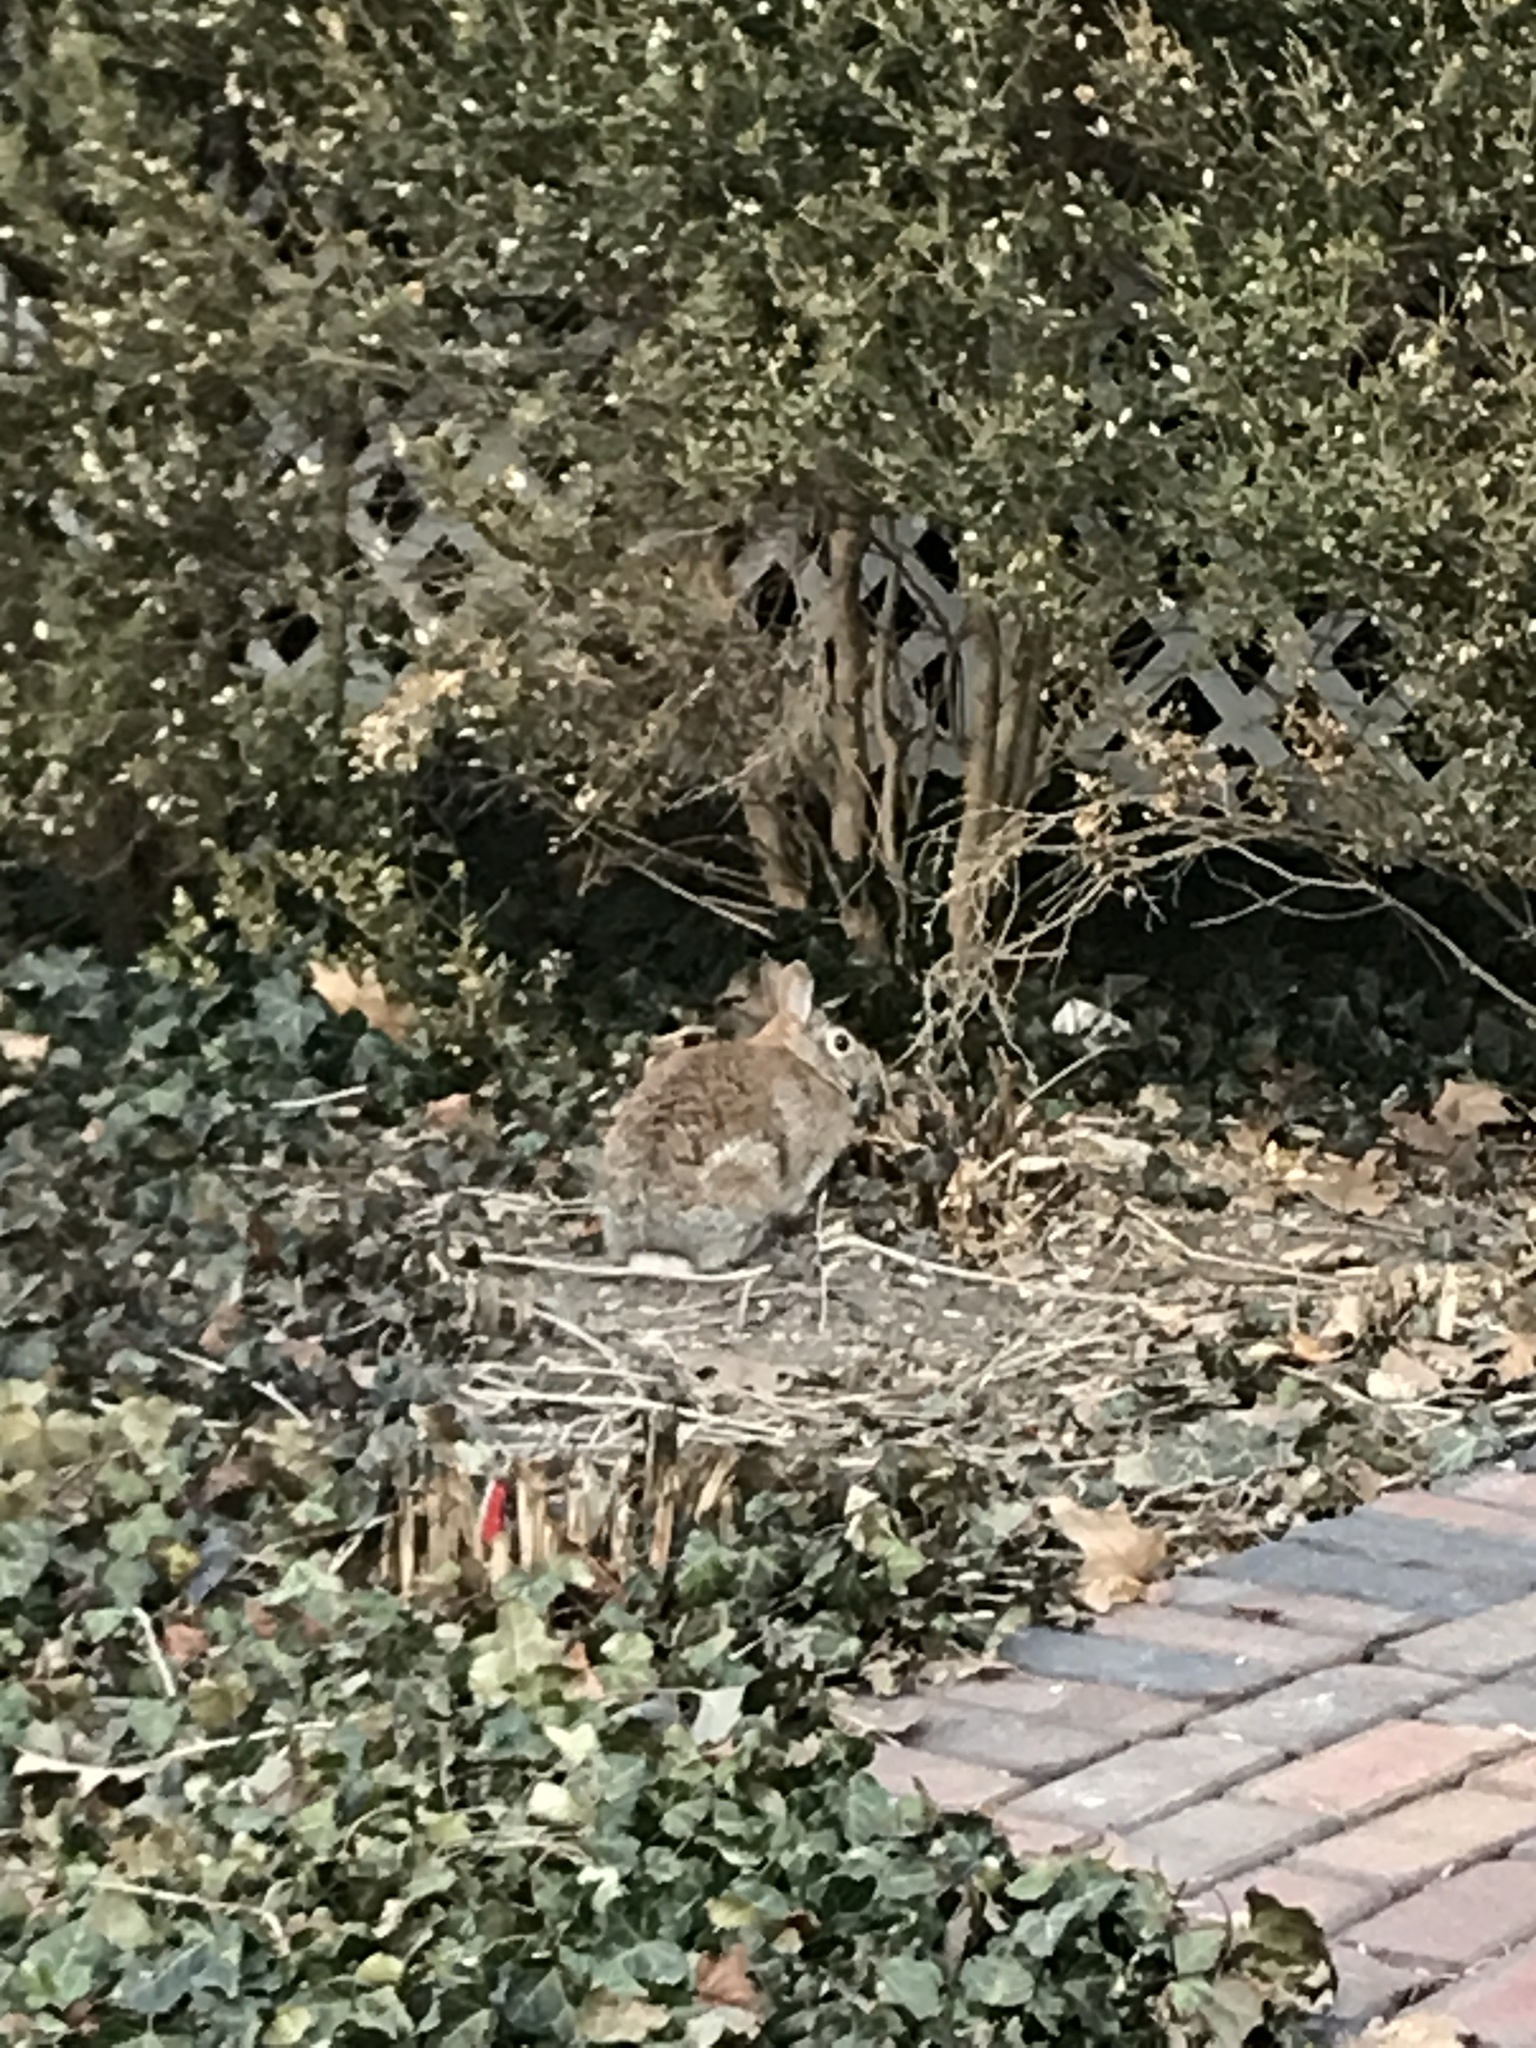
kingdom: Animalia
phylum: Chordata
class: Mammalia
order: Lagomorpha
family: Leporidae
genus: Sylvilagus
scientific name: Sylvilagus floridanus
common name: Eastern cottontail
